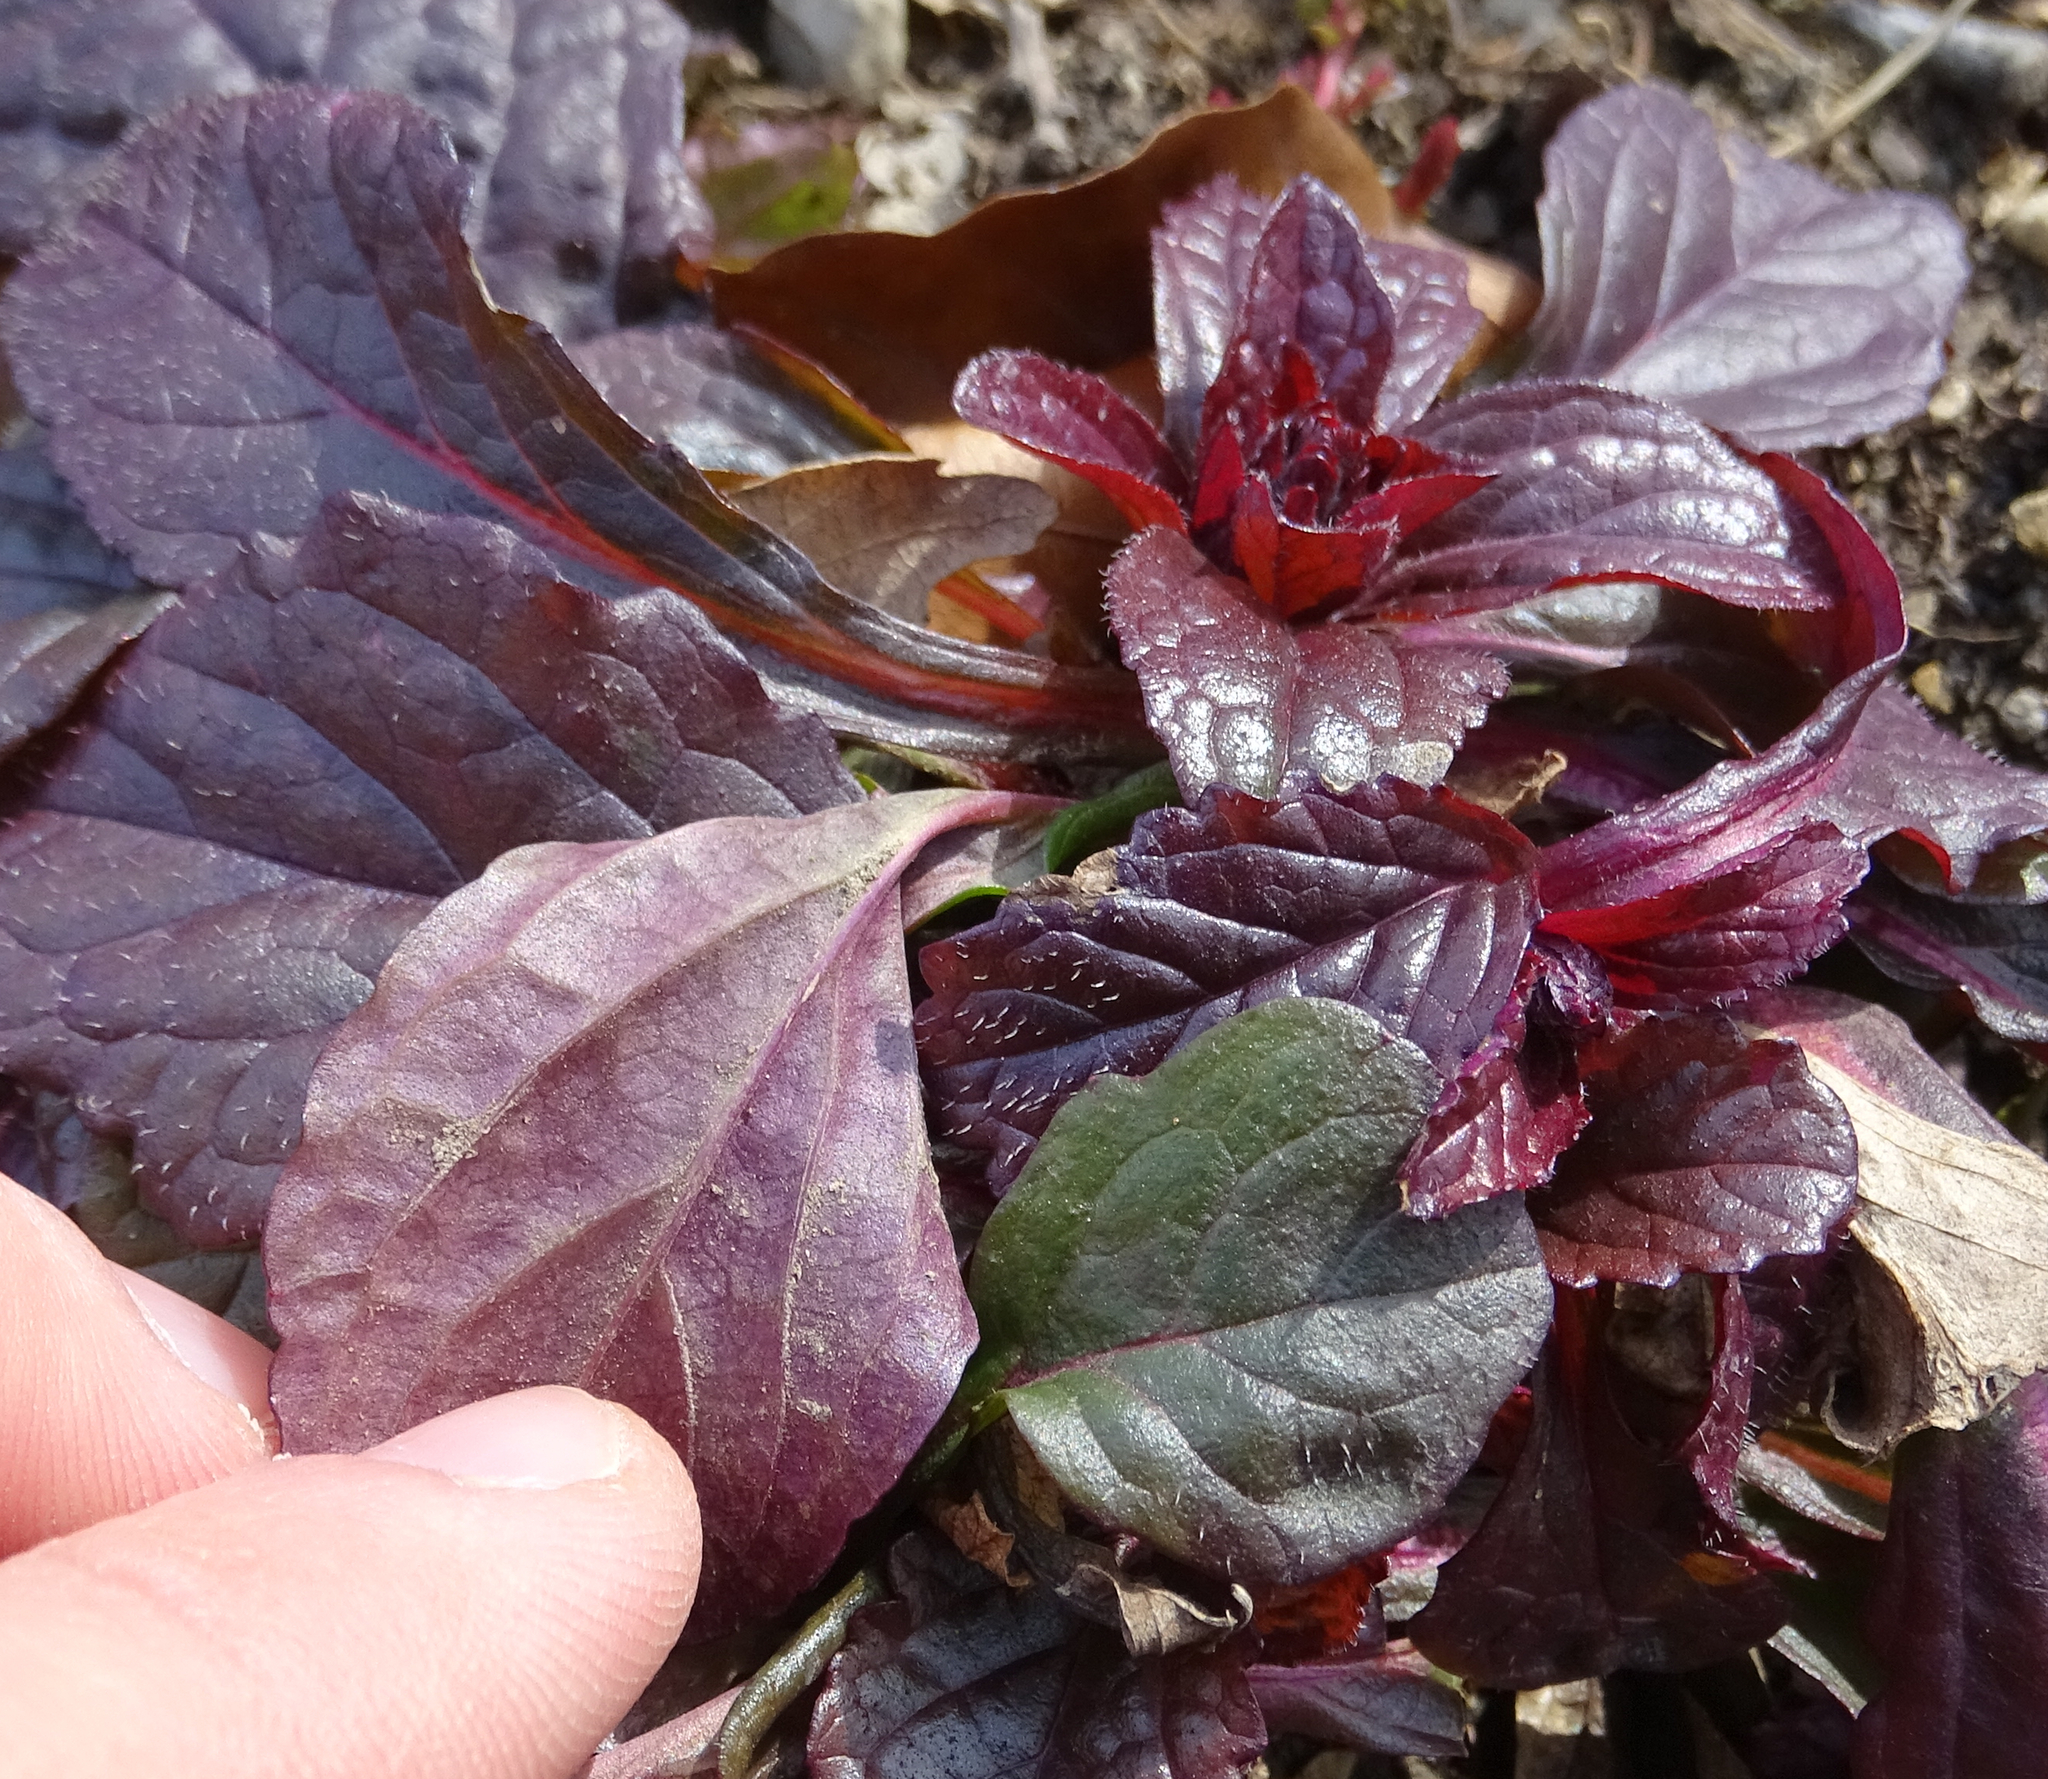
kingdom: Plantae
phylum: Tracheophyta
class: Magnoliopsida
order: Lamiales
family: Lamiaceae
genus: Ajuga
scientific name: Ajuga reptans
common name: Bugle
